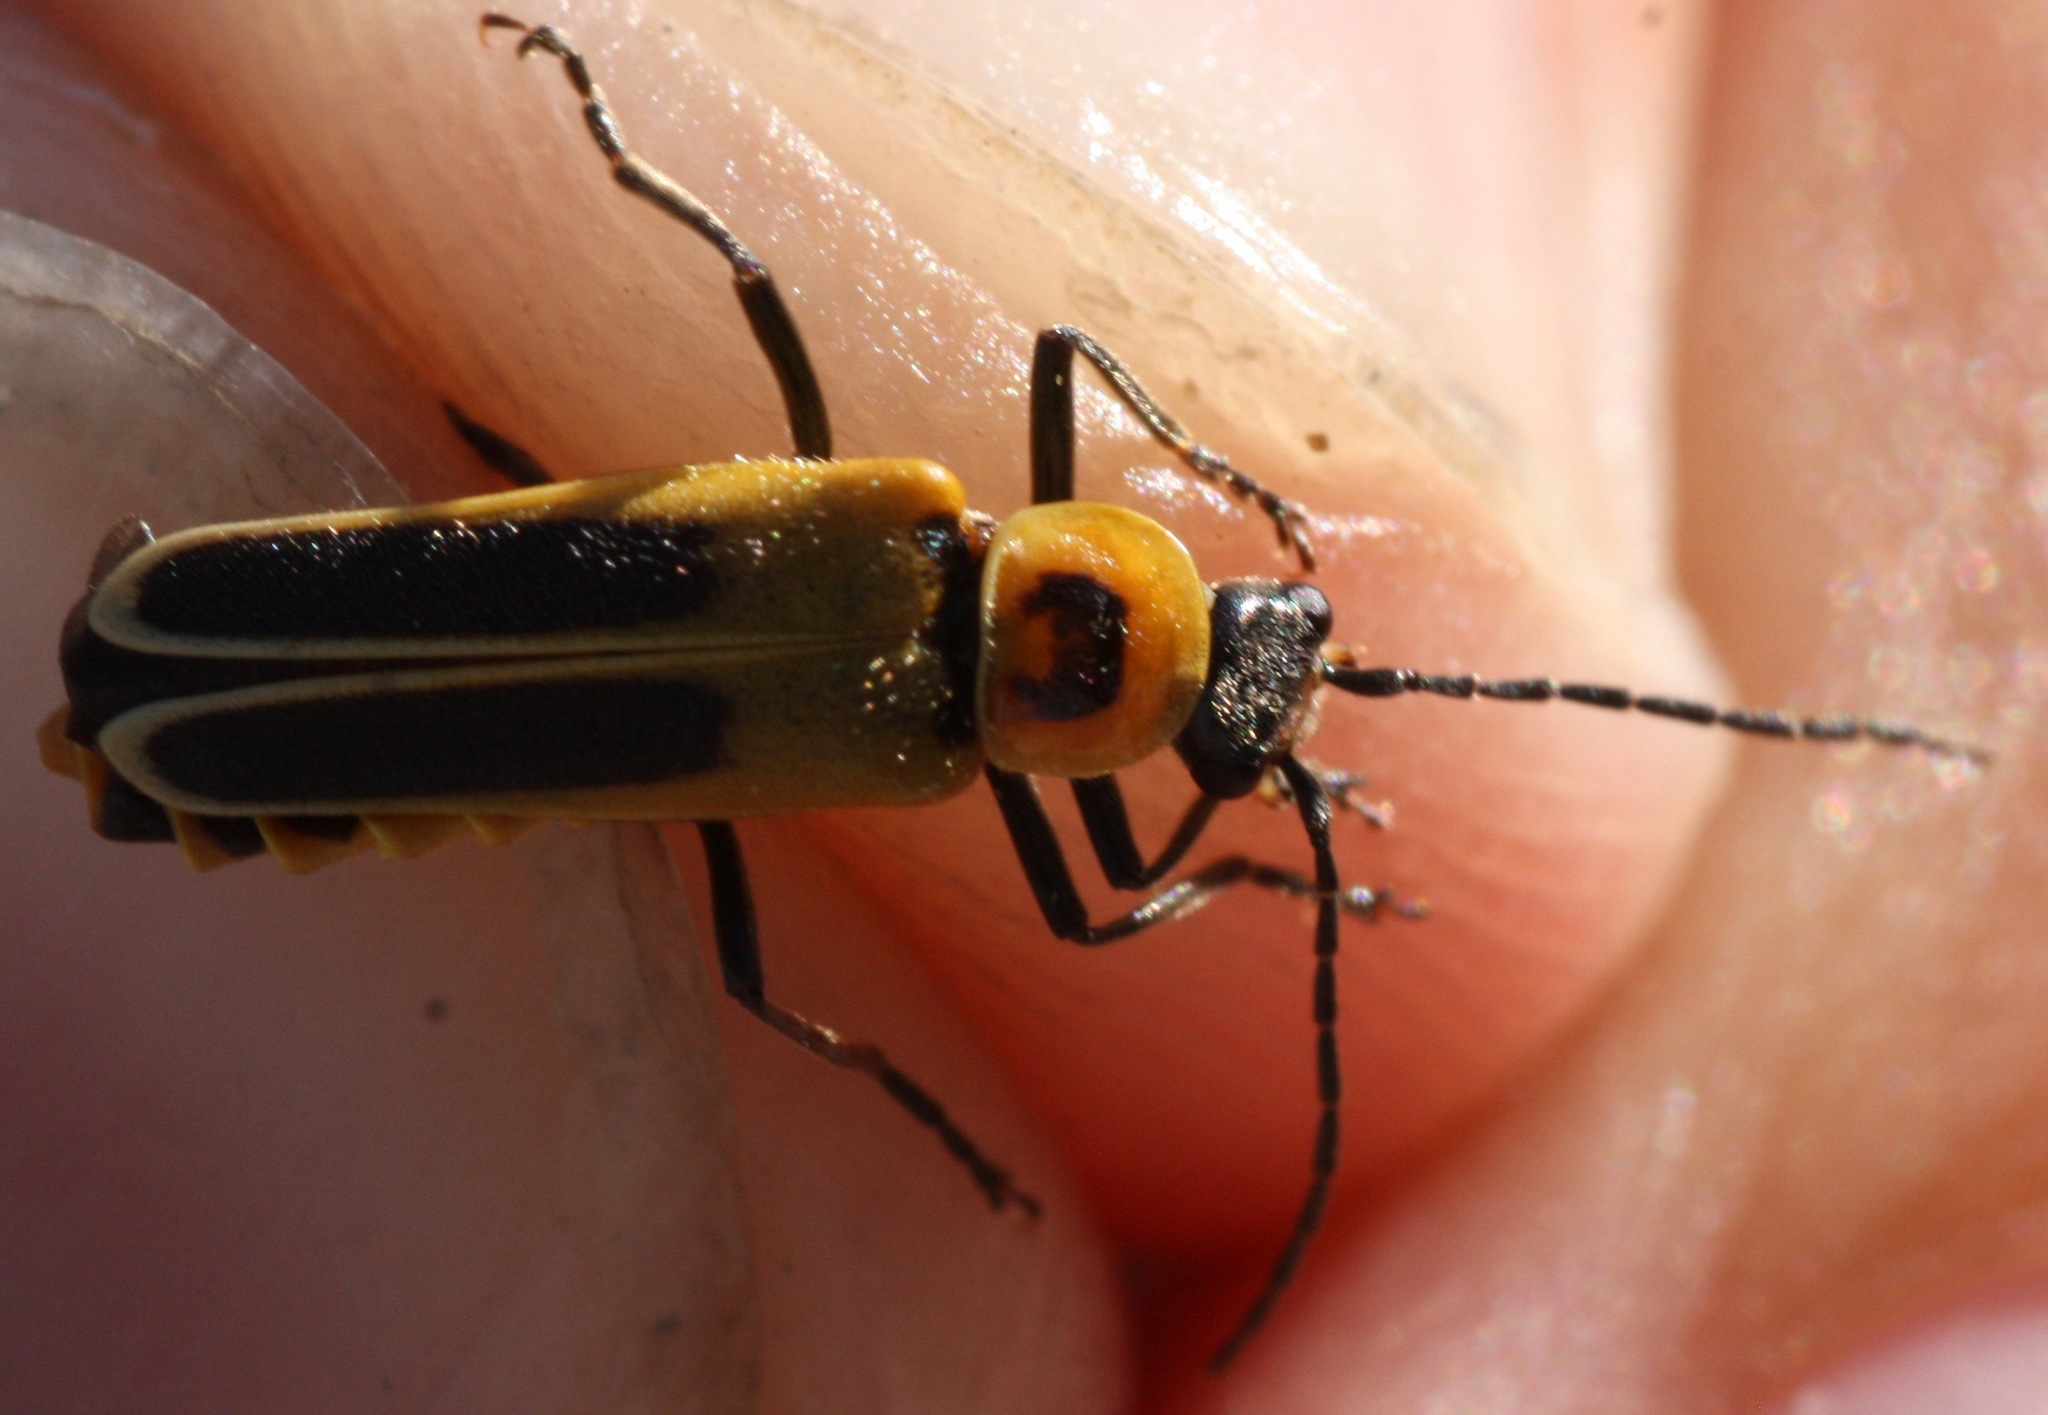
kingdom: Animalia
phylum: Arthropoda
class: Insecta
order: Coleoptera
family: Cantharidae
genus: Chauliognathus
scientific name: Chauliognathus lewisi
